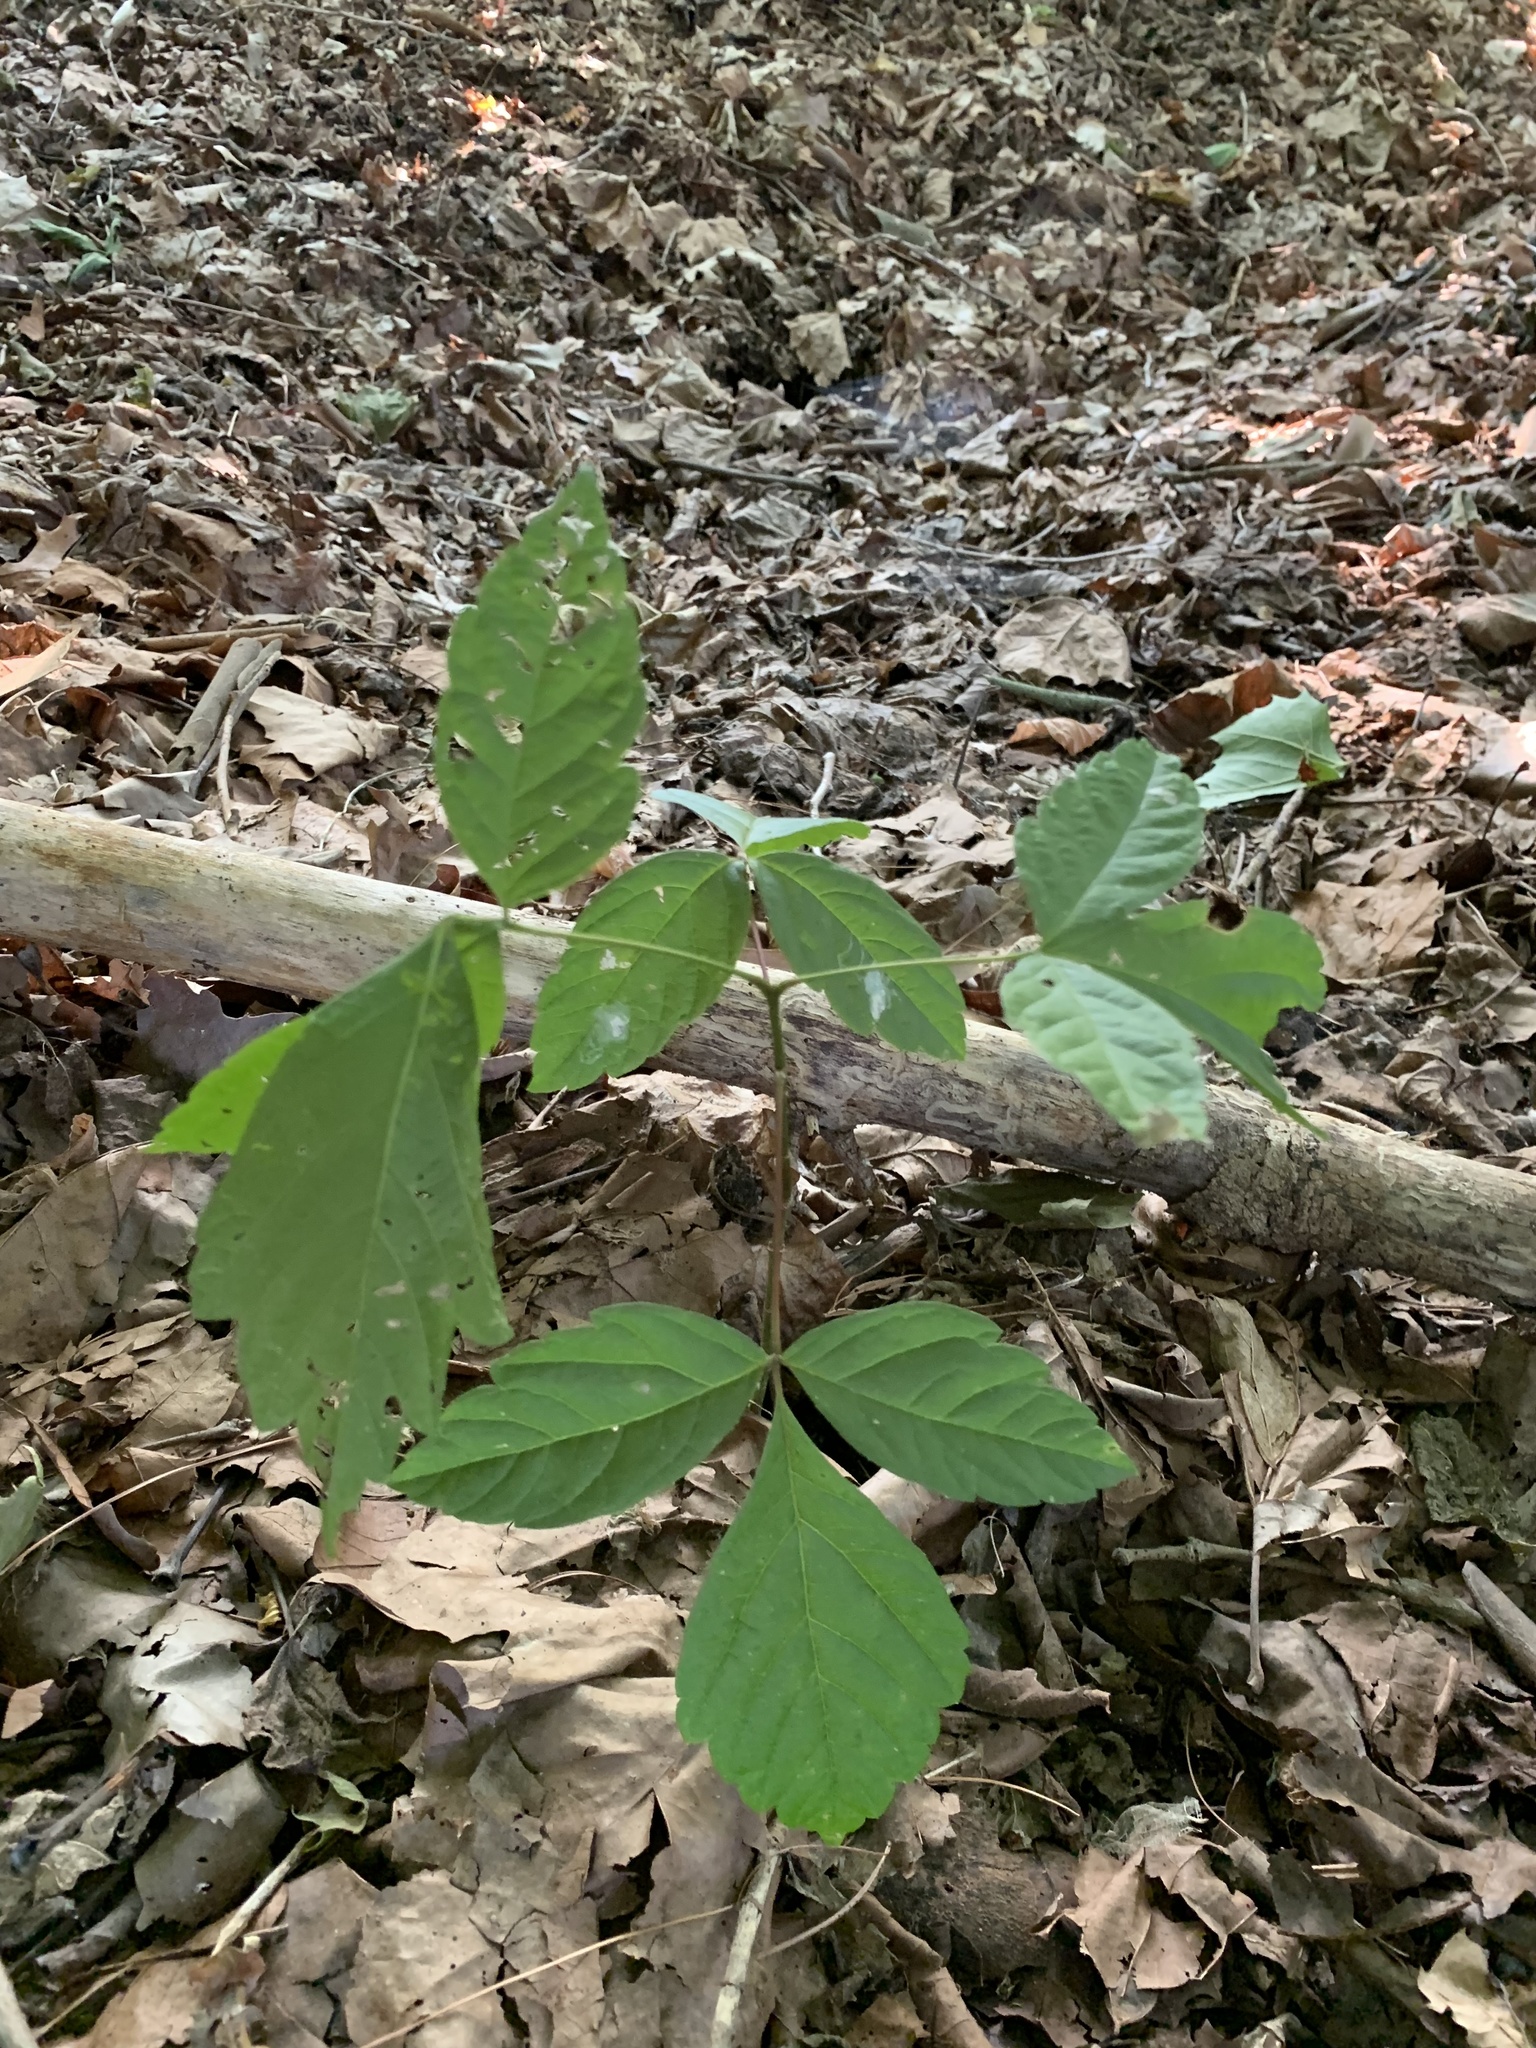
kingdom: Plantae
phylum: Tracheophyta
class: Magnoliopsida
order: Sapindales
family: Sapindaceae
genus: Acer
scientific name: Acer negundo
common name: Ashleaf maple
